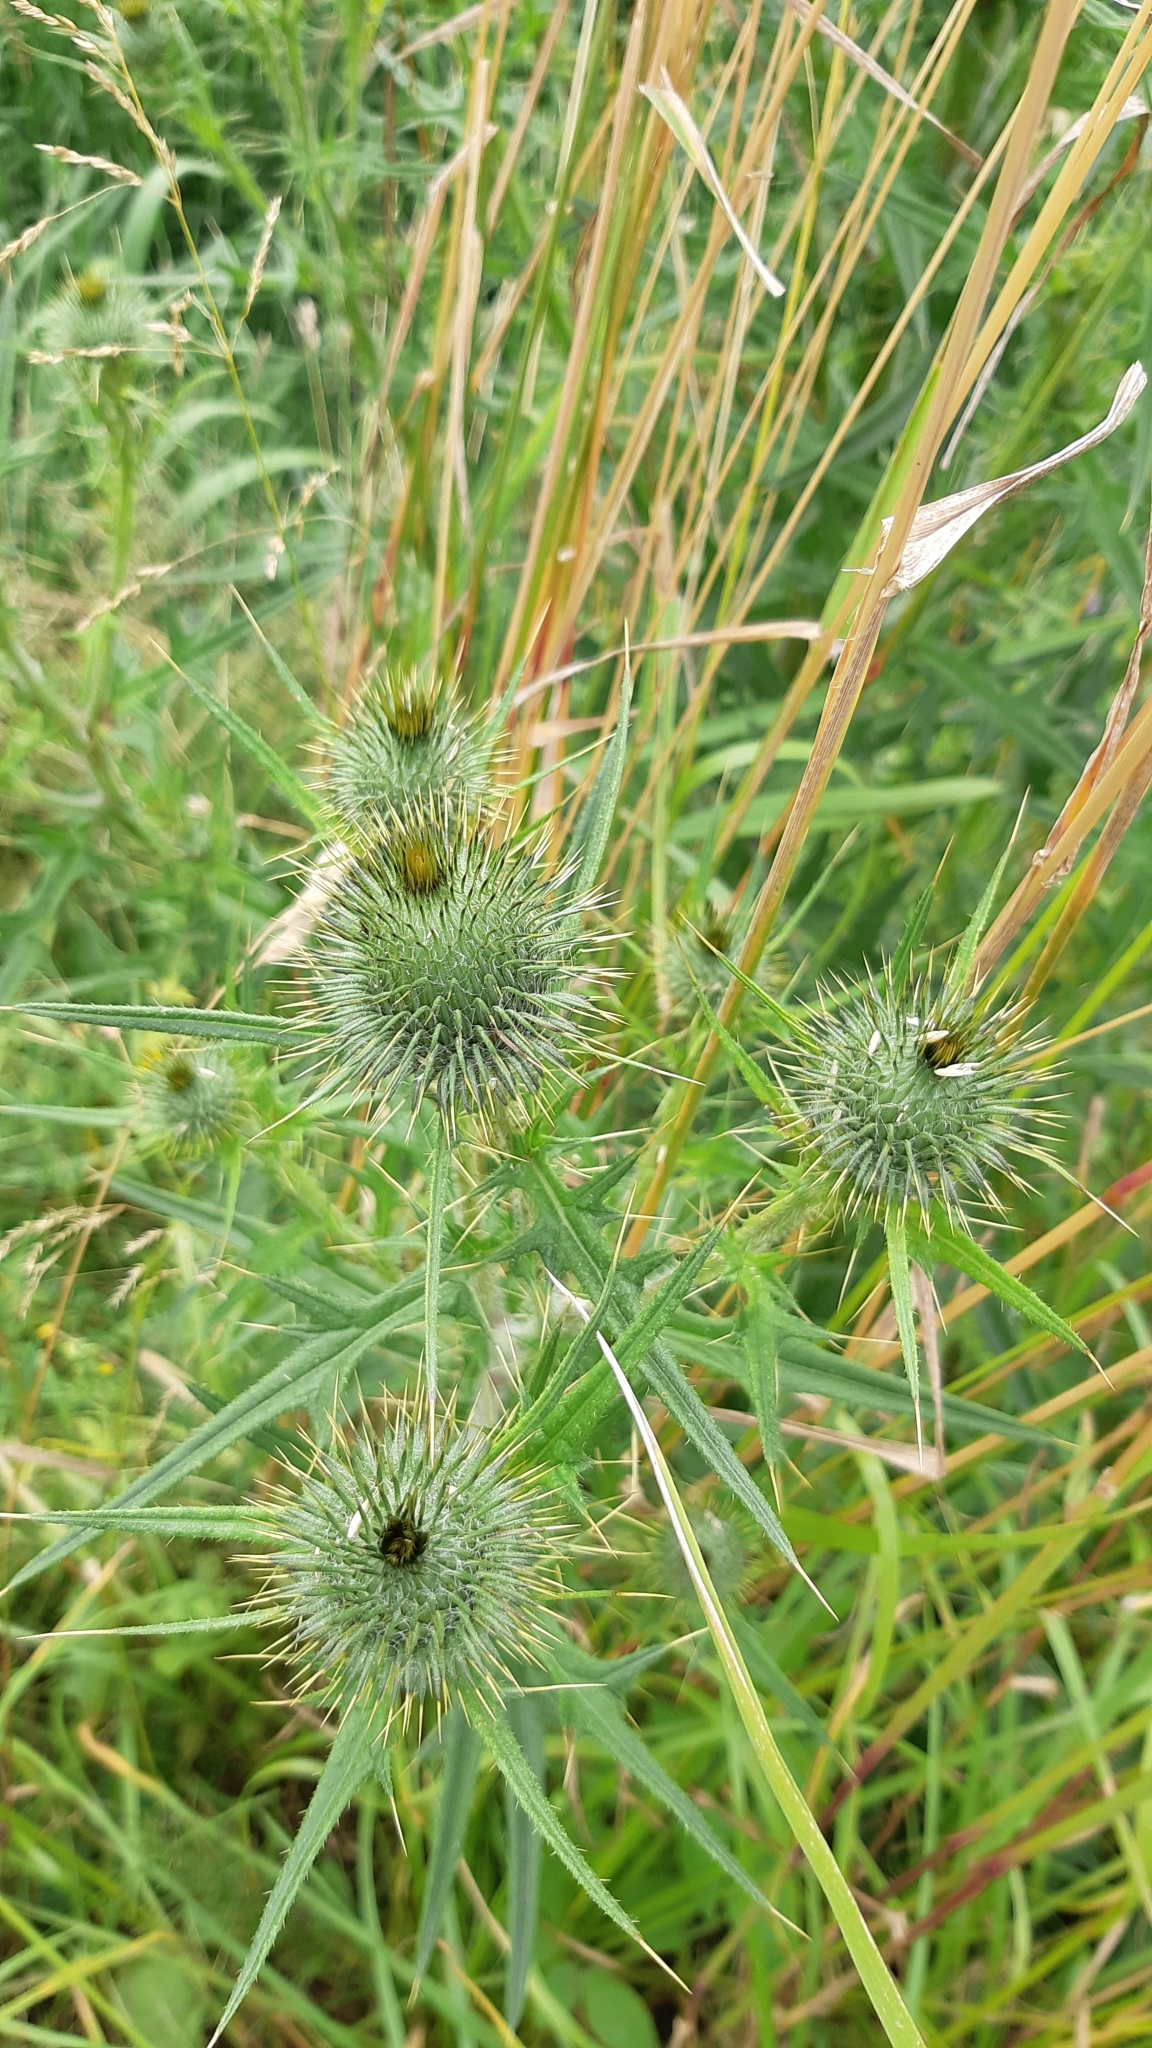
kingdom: Plantae
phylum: Tracheophyta
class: Magnoliopsida
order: Asterales
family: Asteraceae
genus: Cirsium
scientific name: Cirsium vulgare
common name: Bull thistle
